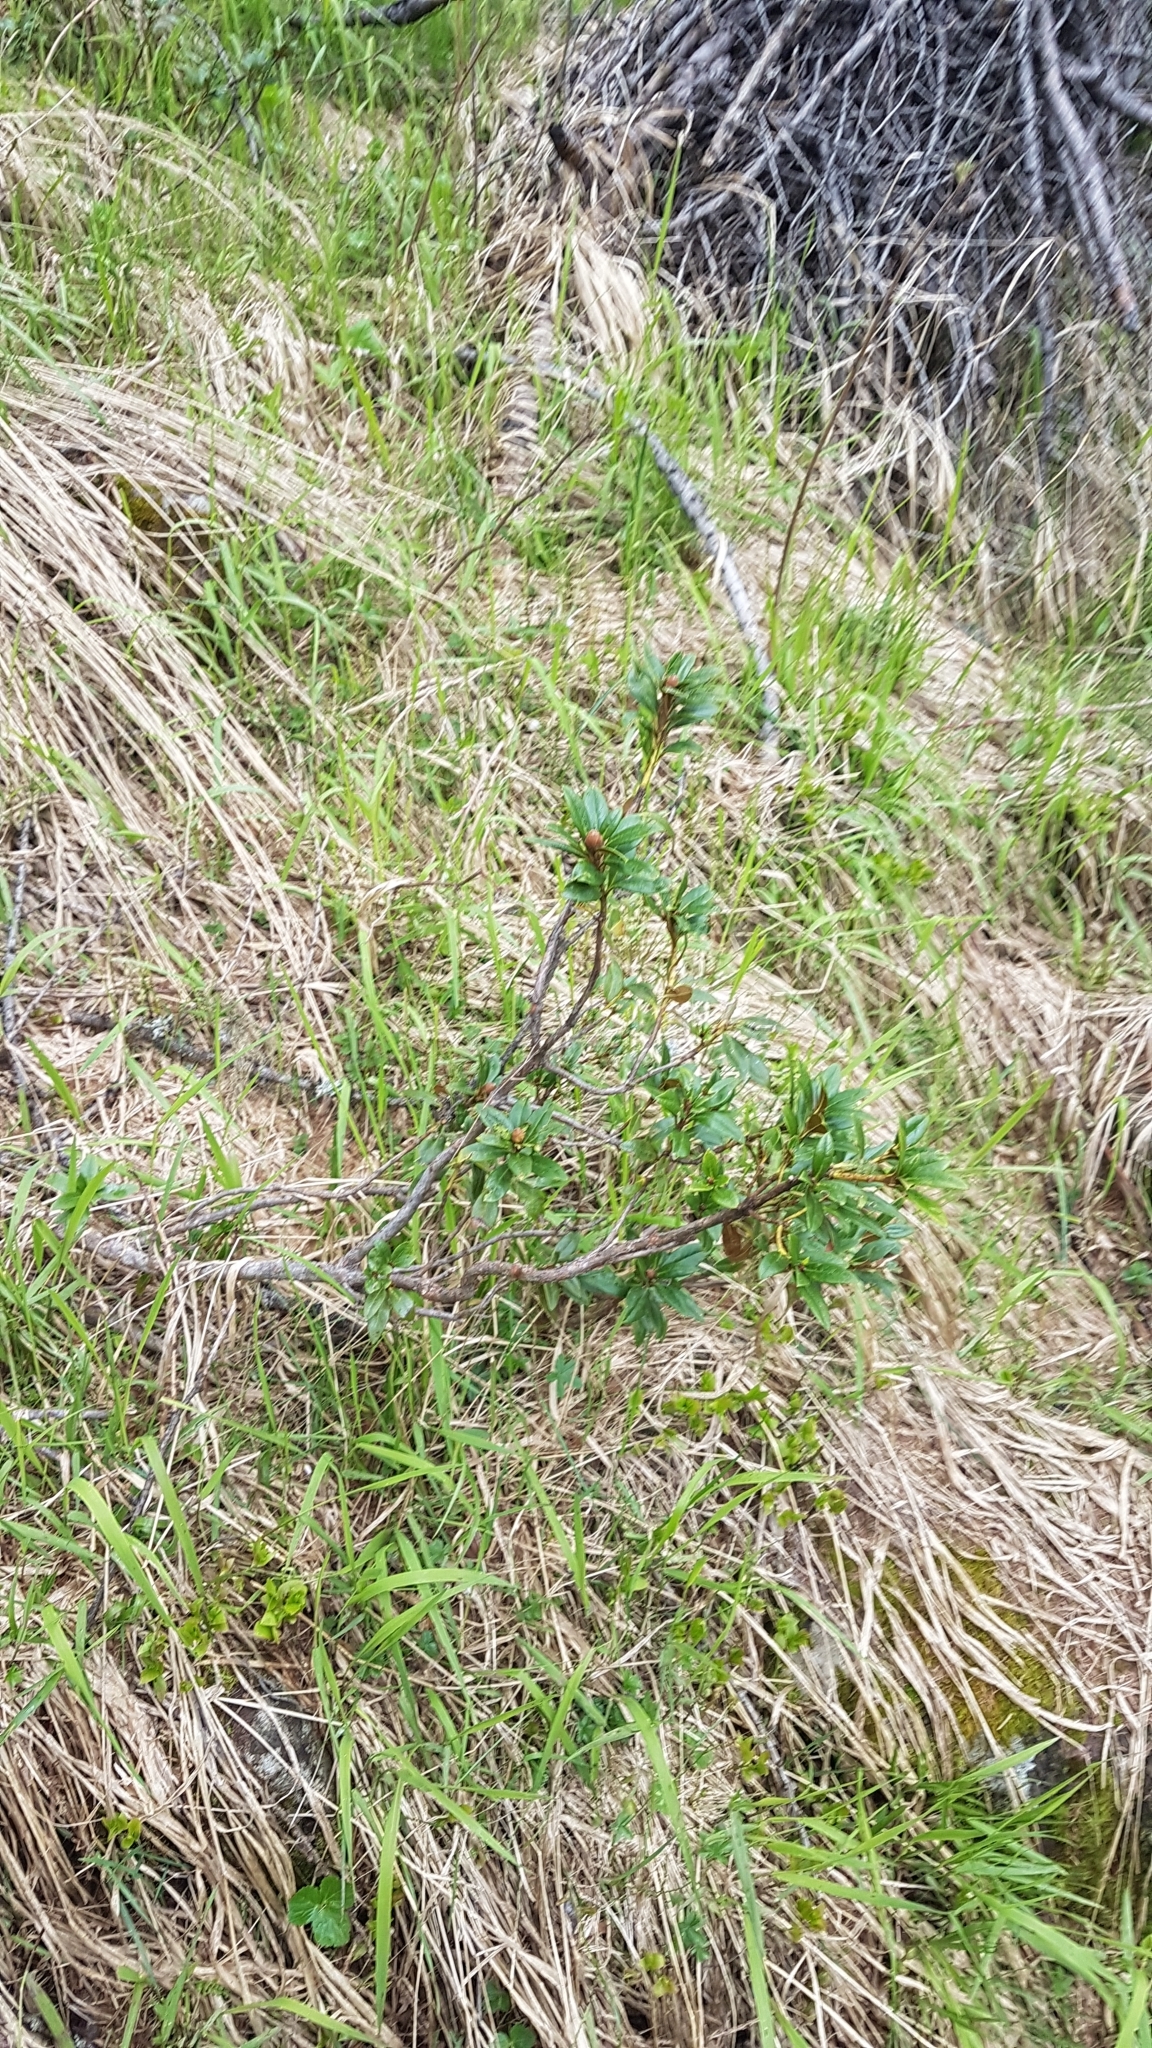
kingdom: Plantae
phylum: Tracheophyta
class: Magnoliopsida
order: Ericales
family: Ericaceae
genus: Rhododendron
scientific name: Rhododendron ferrugineum
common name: Alpenrose
